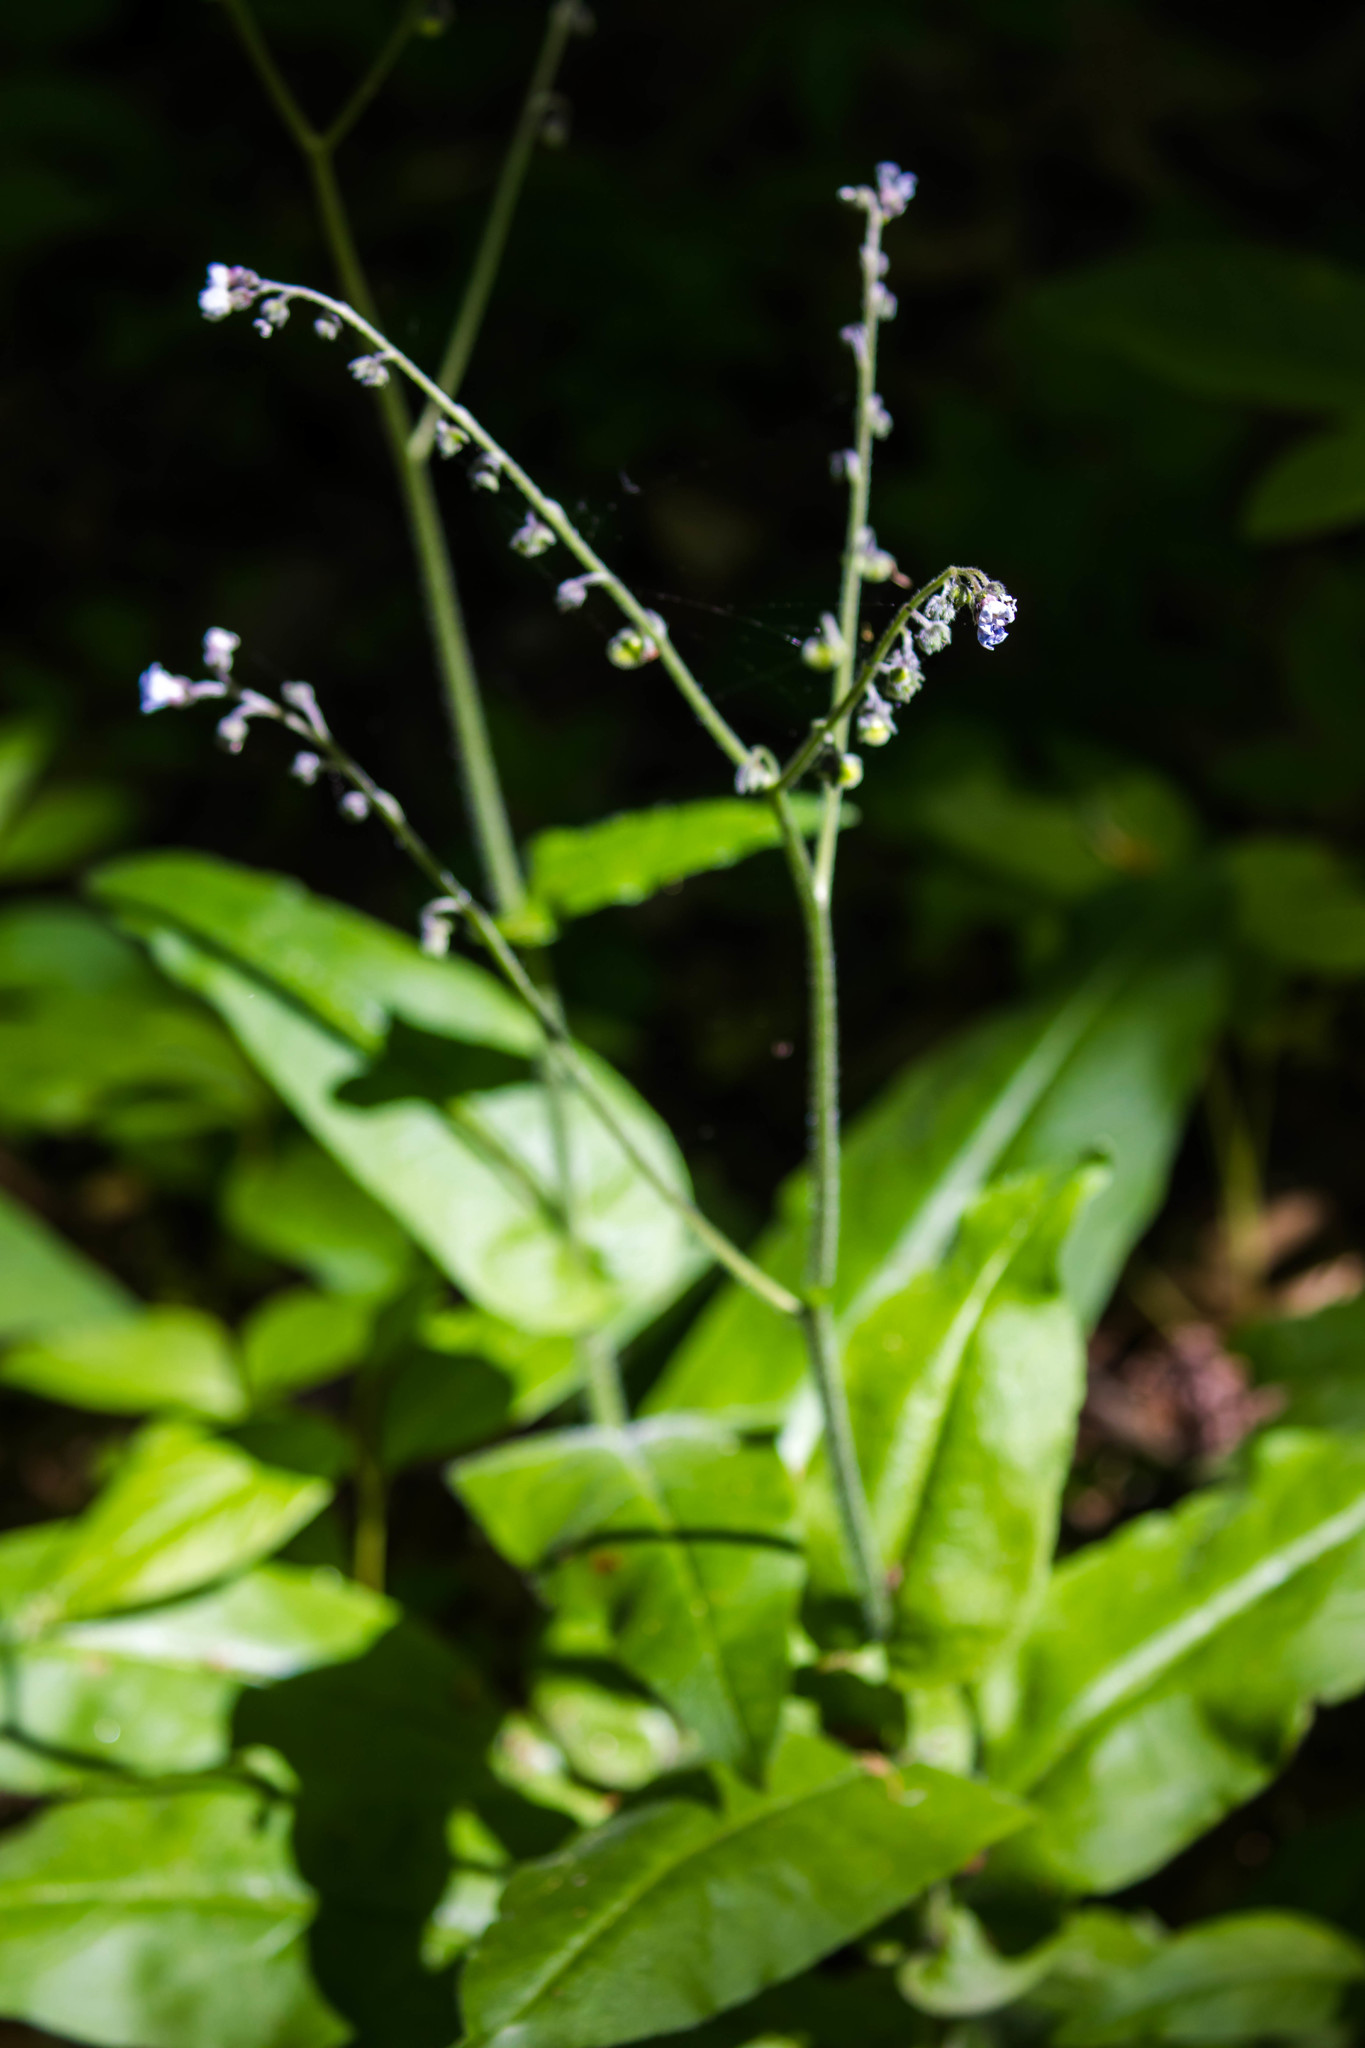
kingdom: Plantae
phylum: Tracheophyta
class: Magnoliopsida
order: Boraginales
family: Boraginaceae
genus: Andersonglossum
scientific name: Andersonglossum virginianum
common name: Wild comfrey
